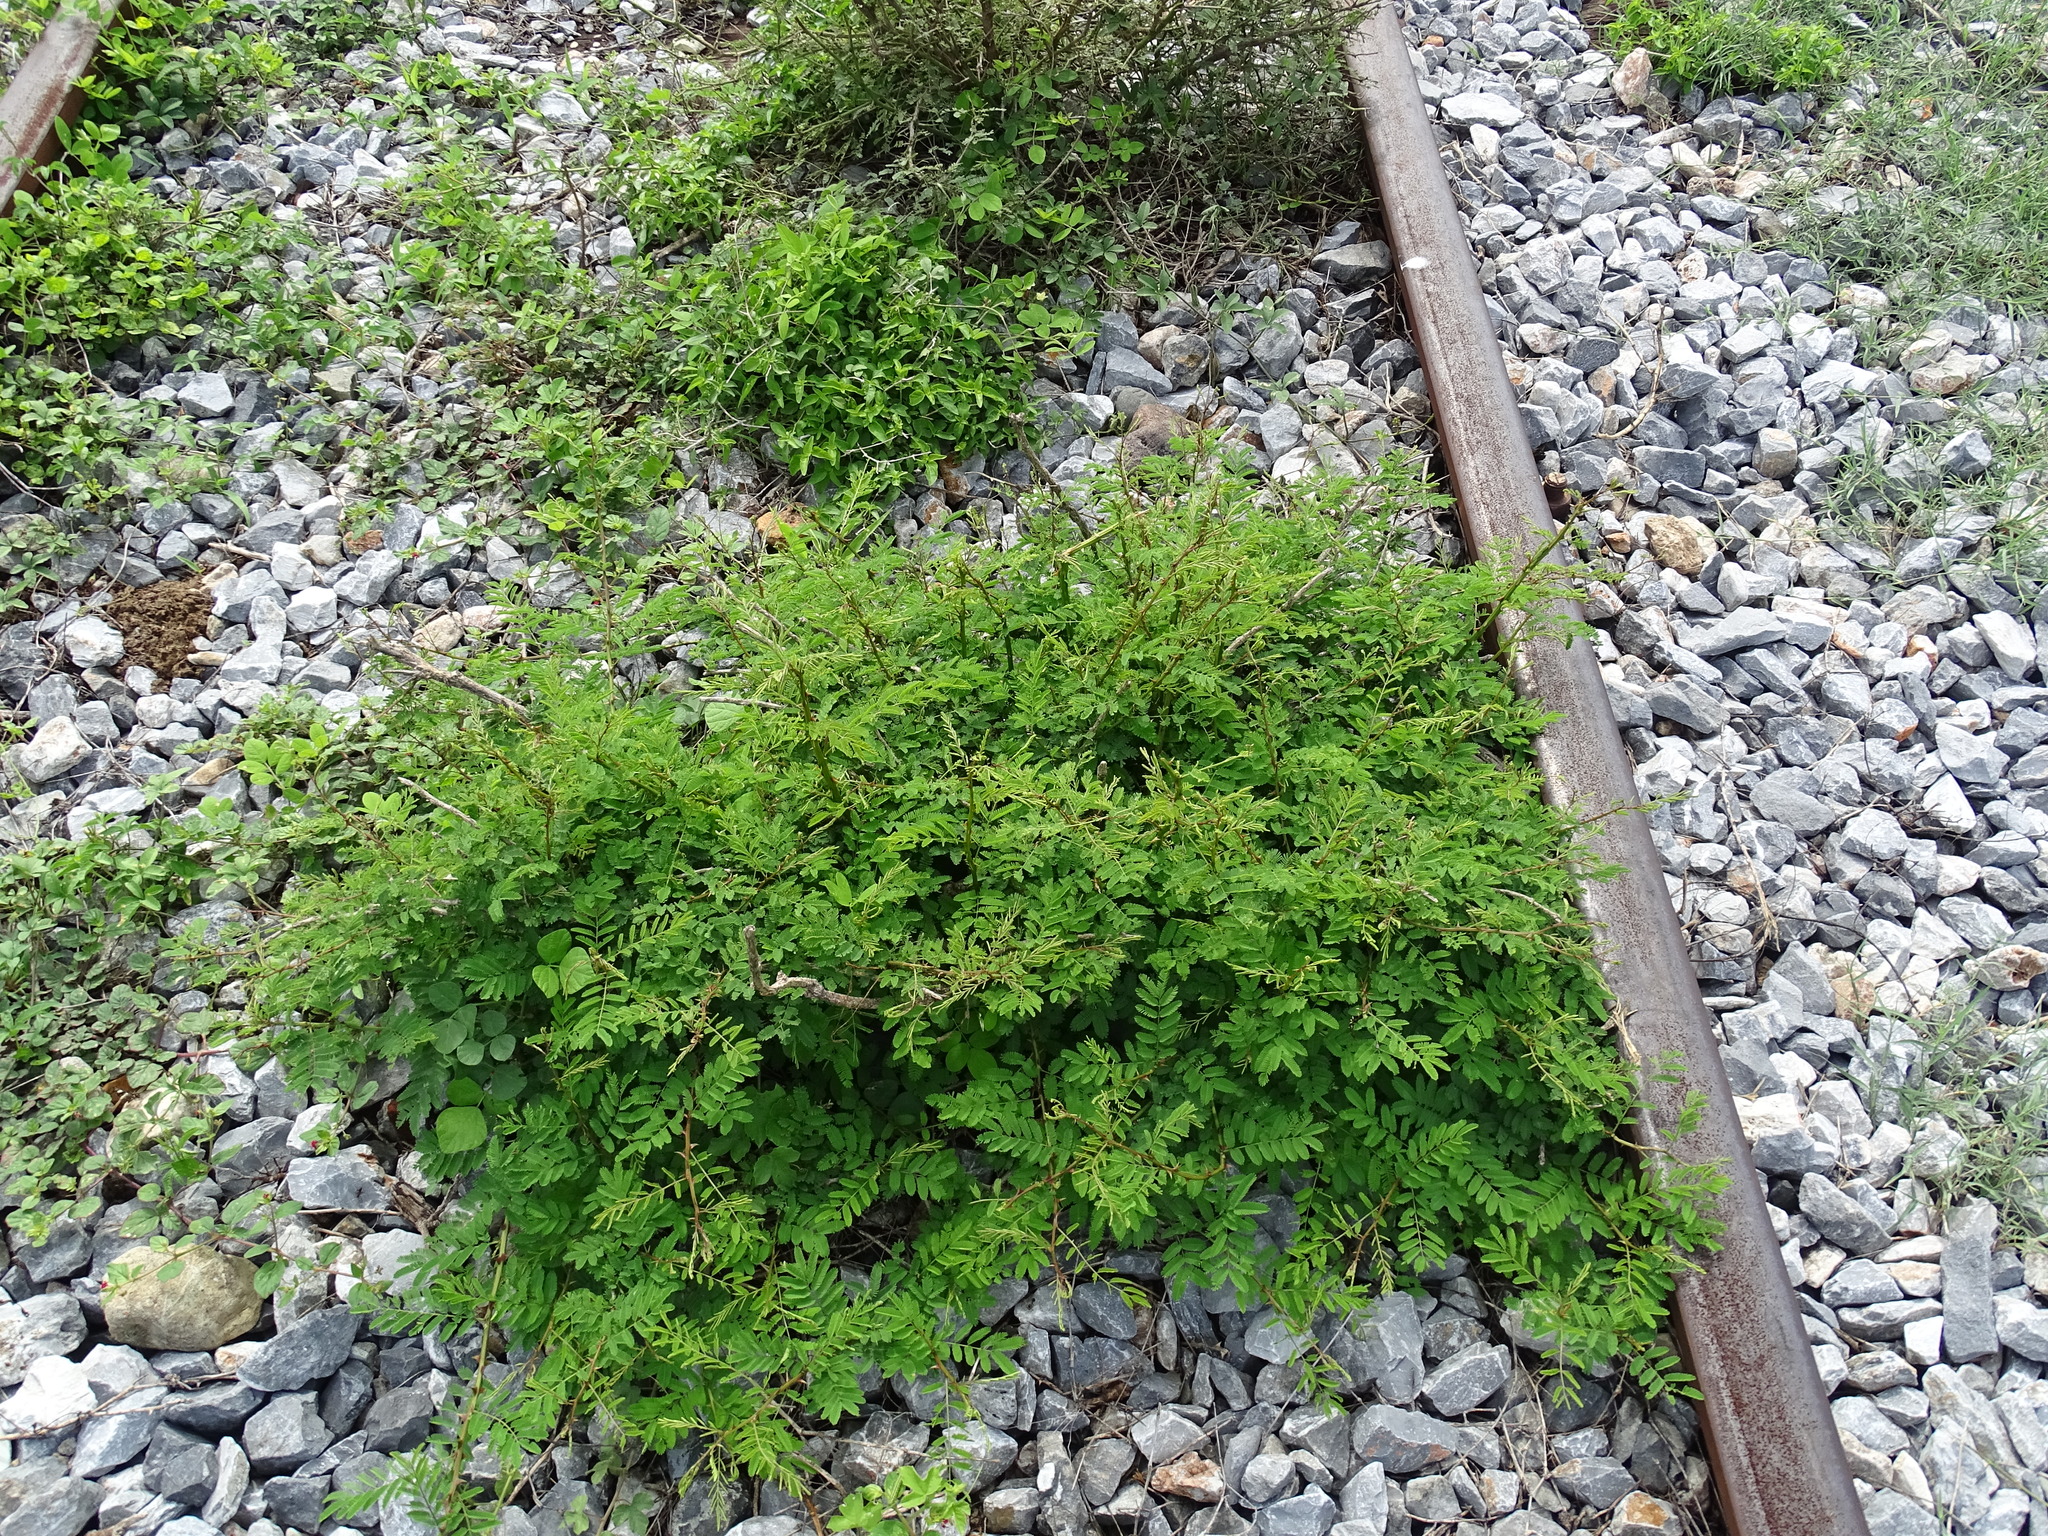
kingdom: Plantae
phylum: Tracheophyta
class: Magnoliopsida
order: Fabales
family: Fabaceae
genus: Mimosa
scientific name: Mimosa acantholoba
